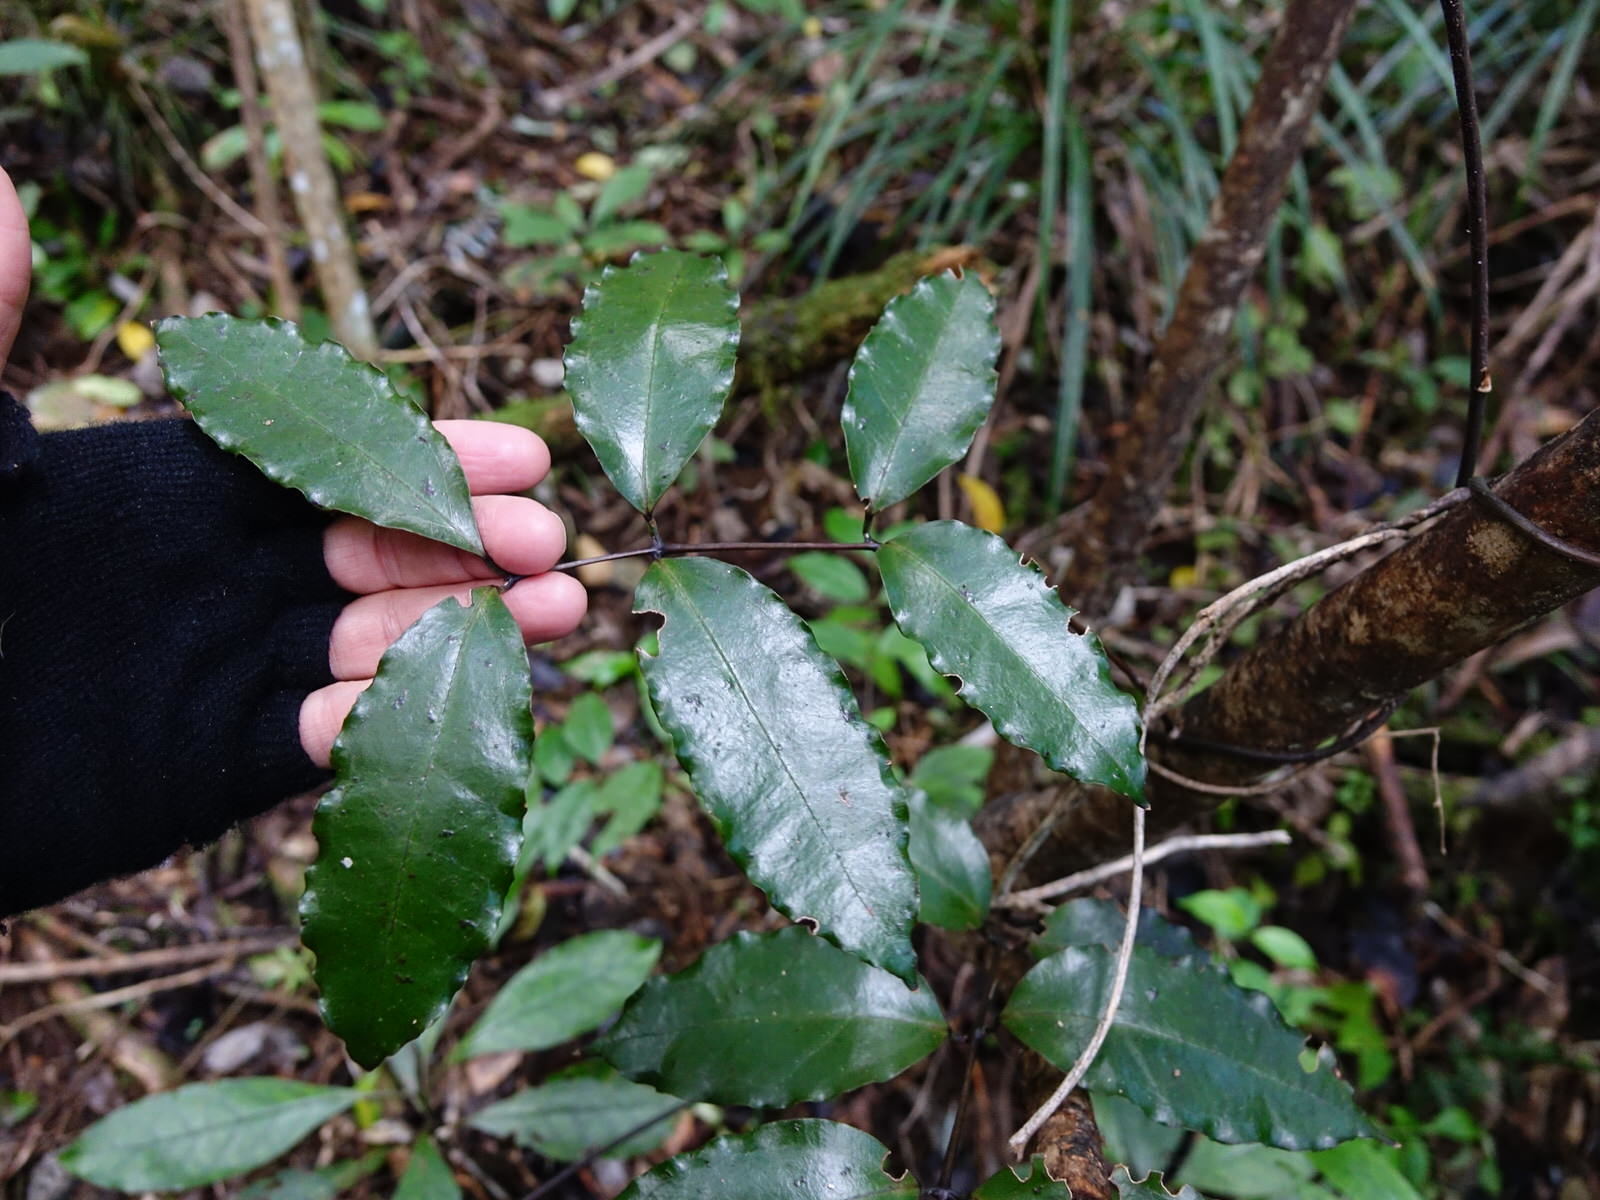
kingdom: Plantae
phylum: Tracheophyta
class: Liliopsida
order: Liliales
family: Ripogonaceae
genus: Ripogonum
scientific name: Ripogonum scandens
